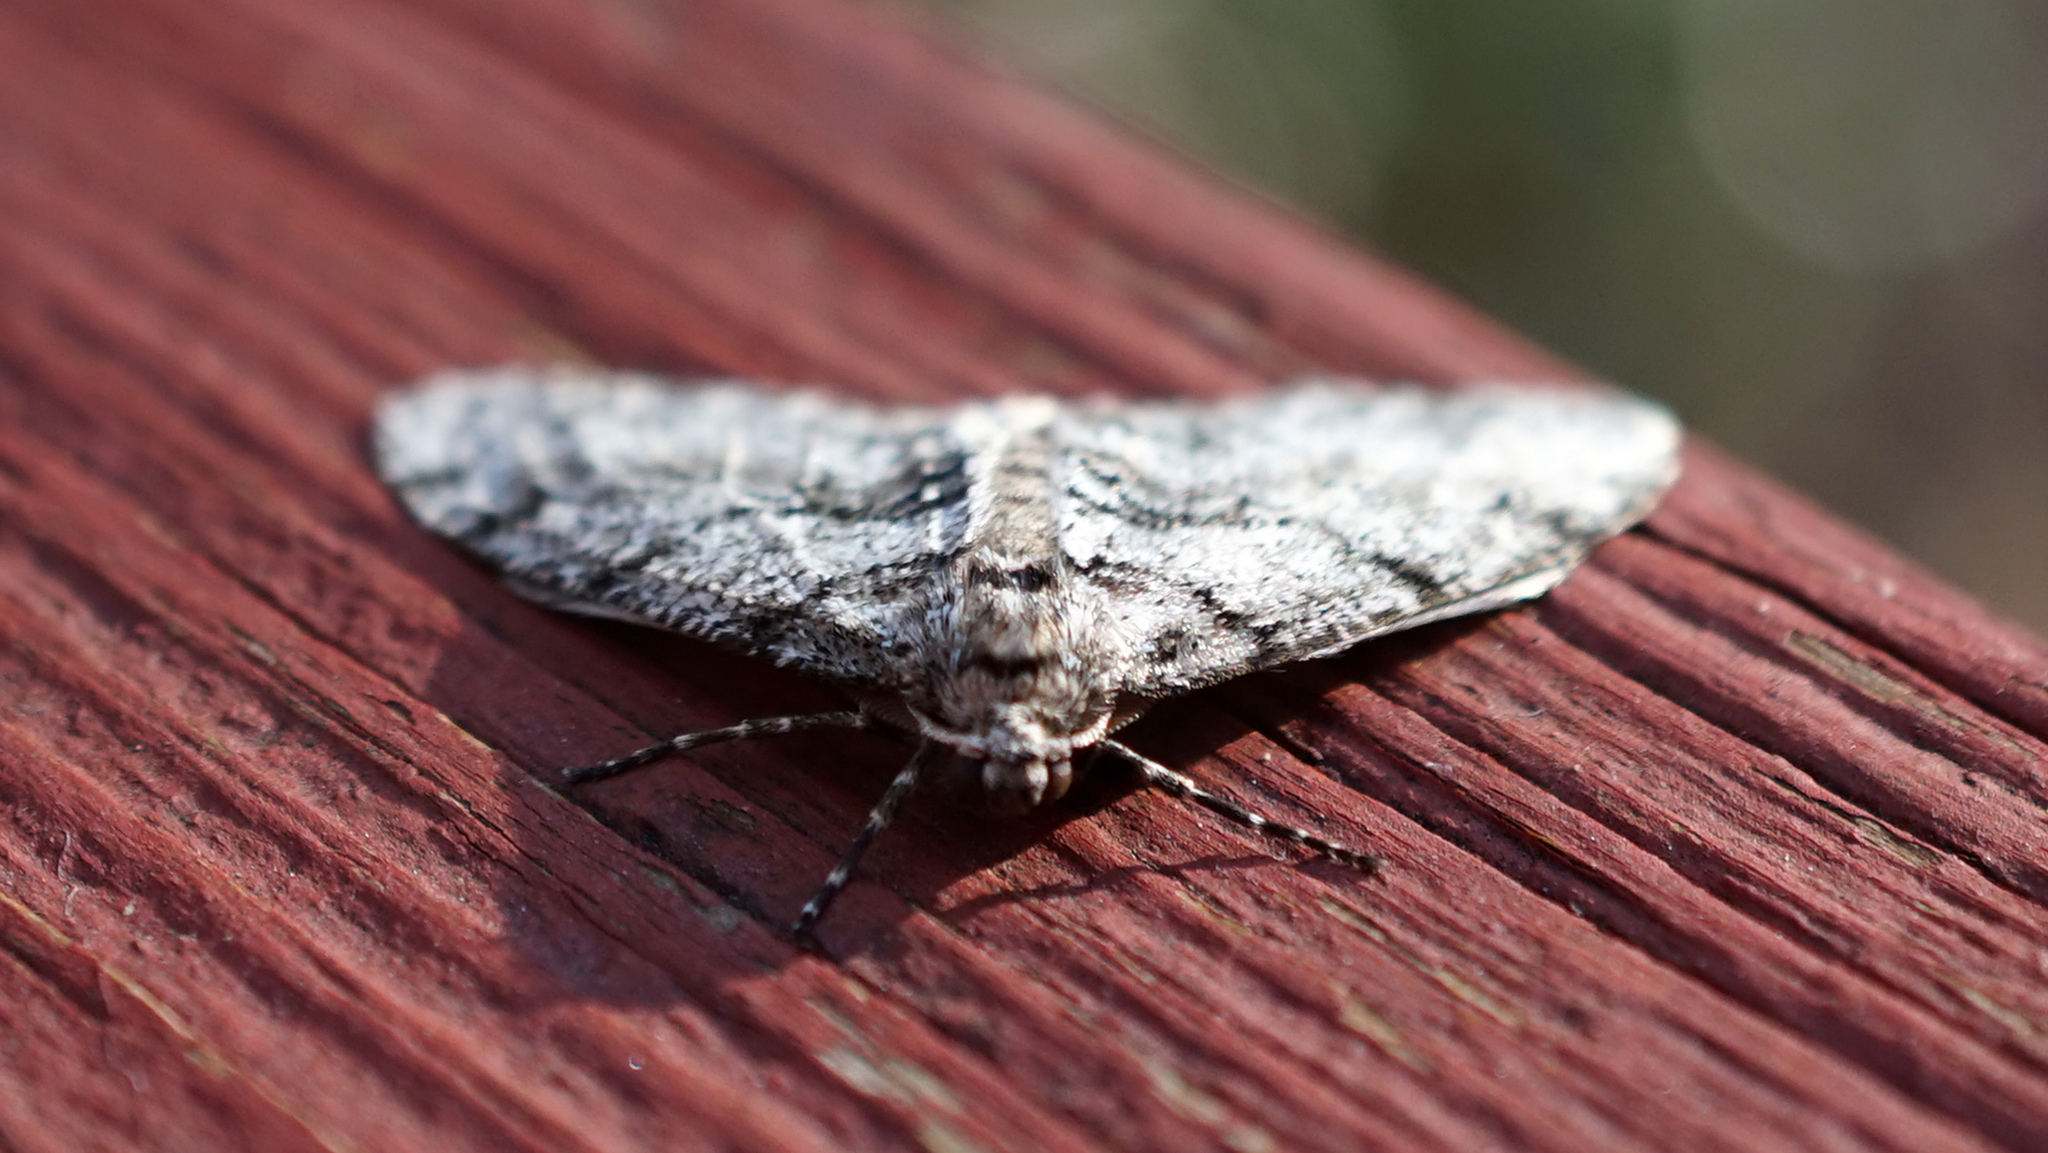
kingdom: Animalia
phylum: Arthropoda
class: Insecta
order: Lepidoptera
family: Geometridae
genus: Phigalia
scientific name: Phigalia denticulata
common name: Toothed phigalia
